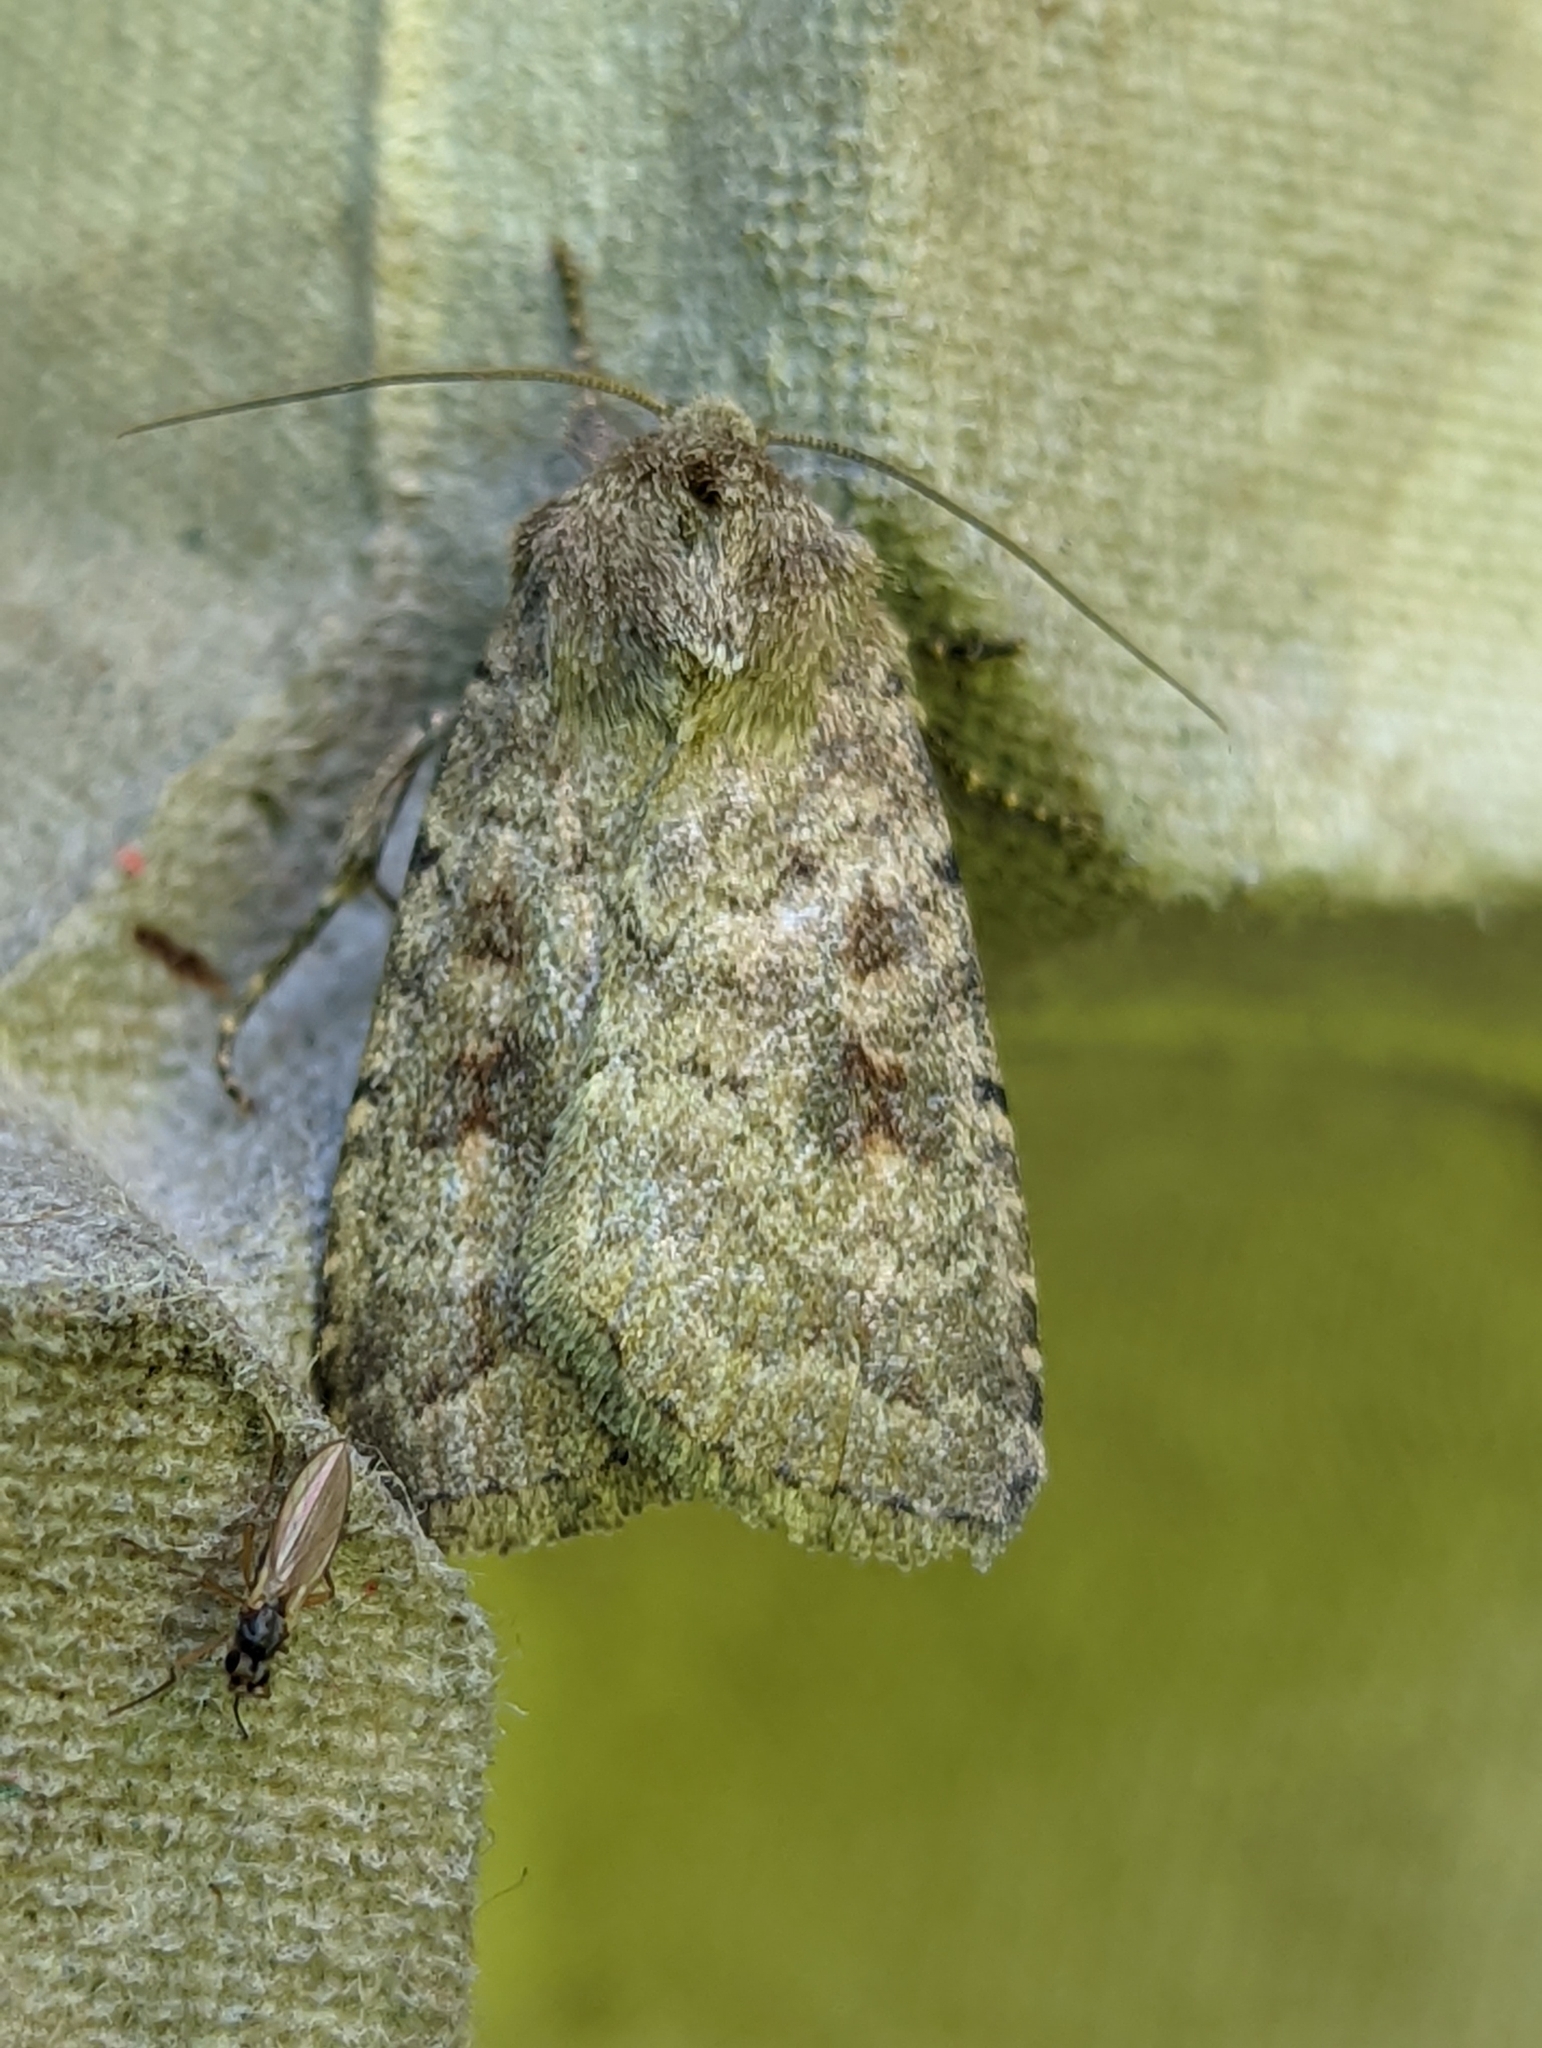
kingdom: Animalia
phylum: Arthropoda
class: Insecta
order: Lepidoptera
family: Noctuidae
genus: Caradrina
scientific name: Caradrina morpheus
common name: Mottled rustic
